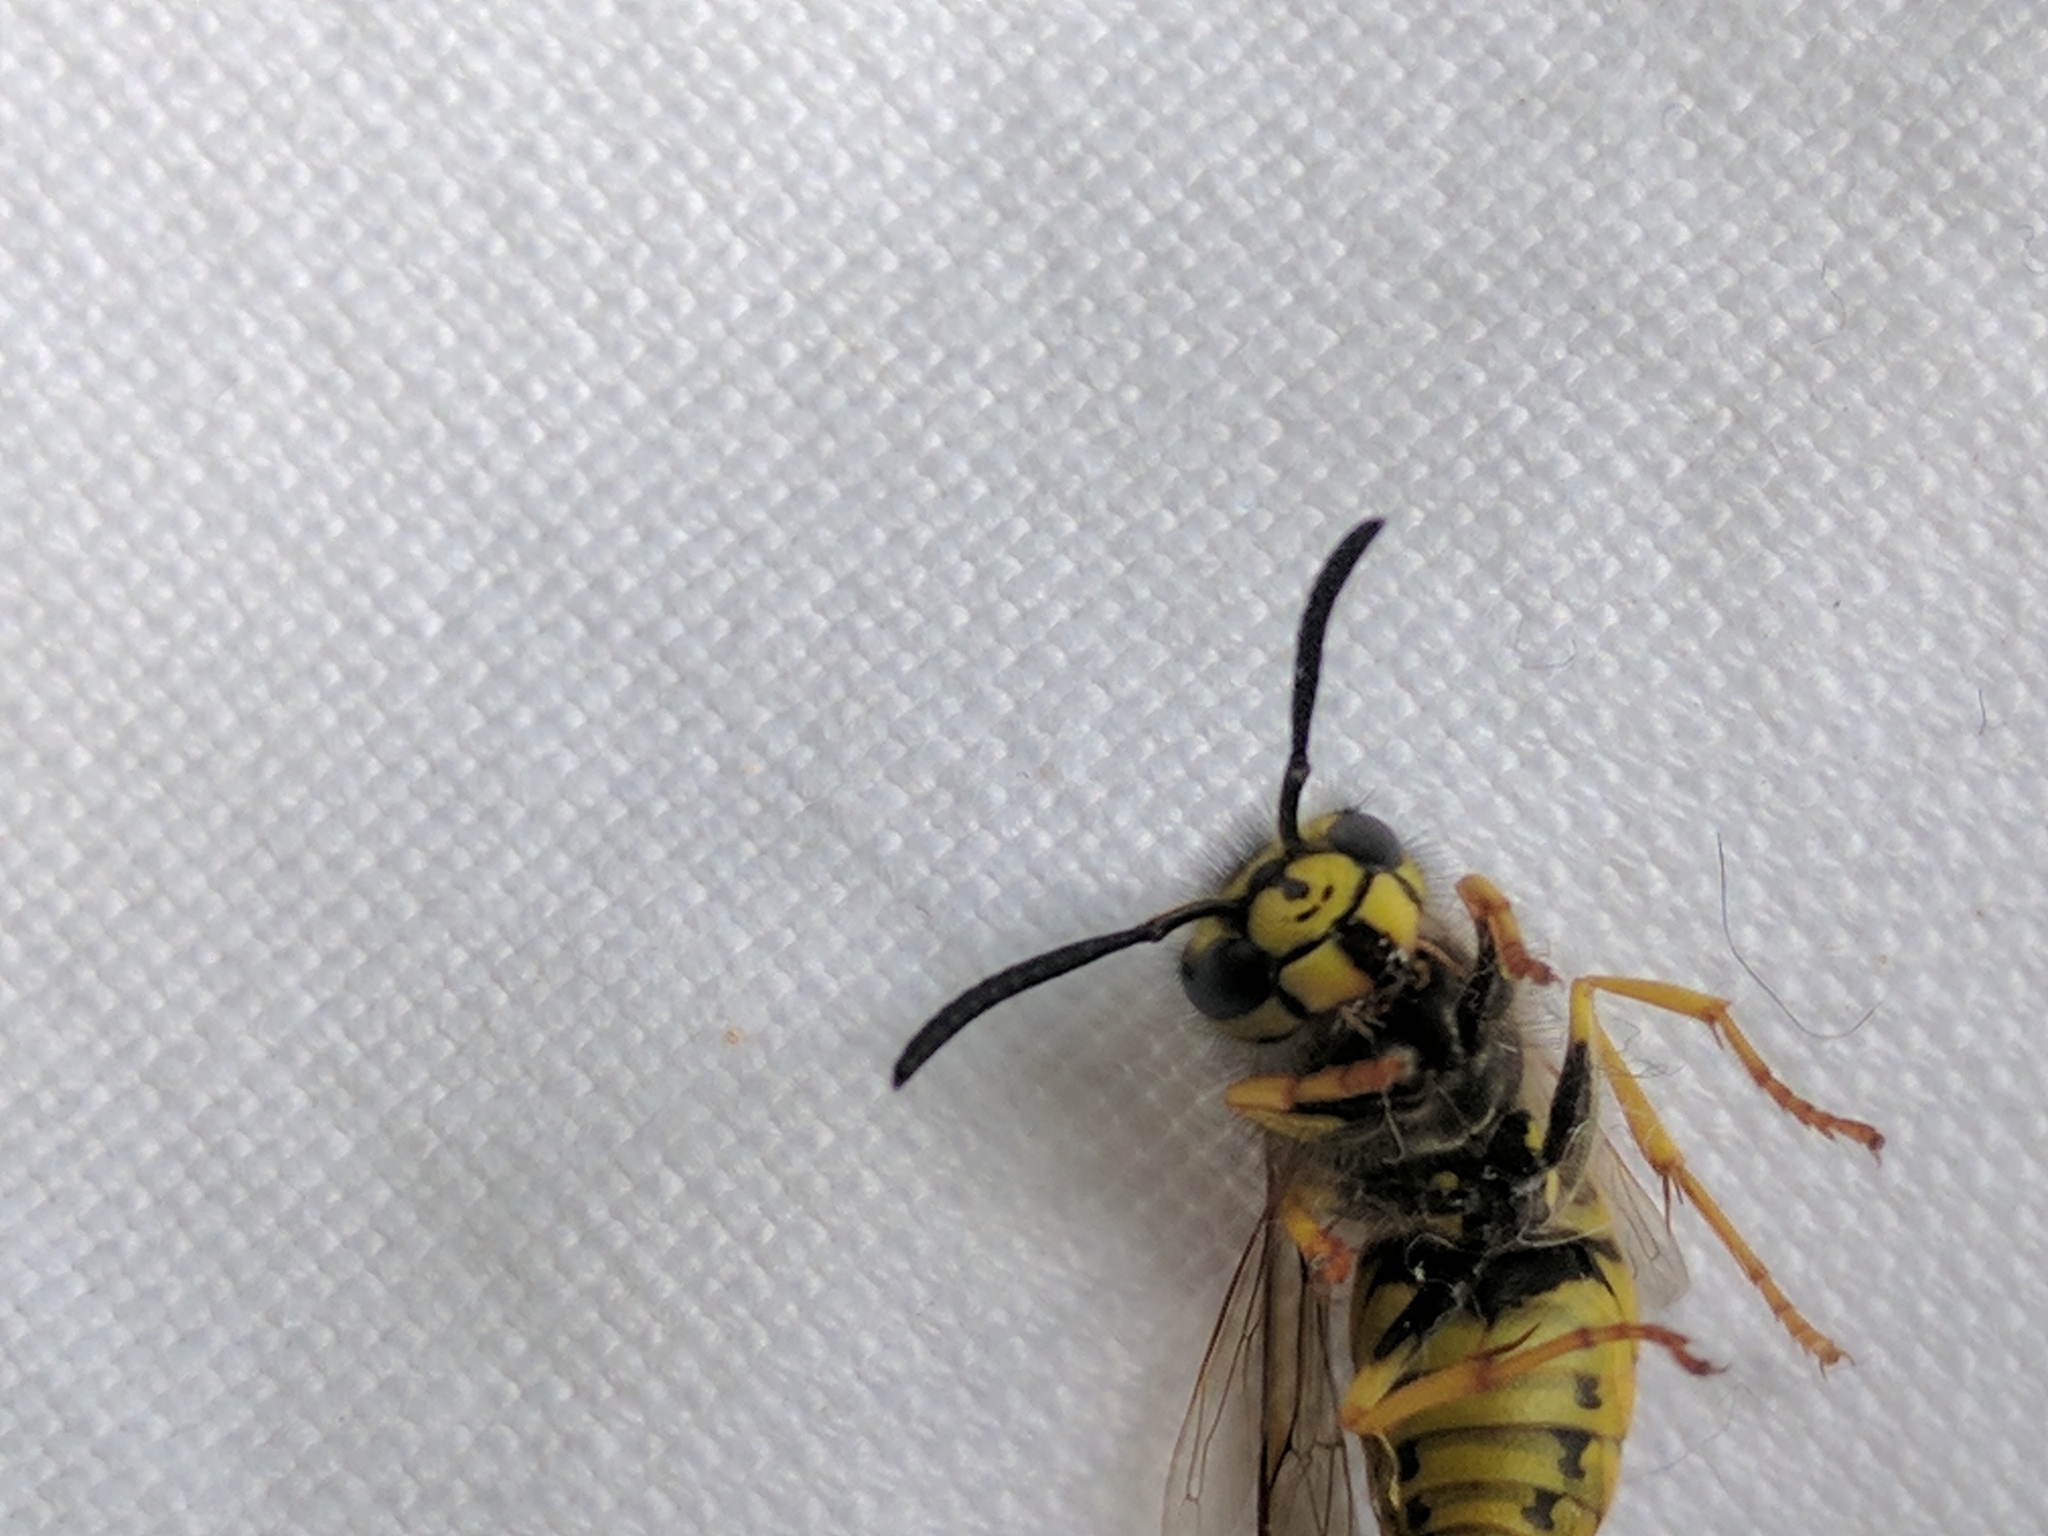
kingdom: Animalia
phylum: Arthropoda
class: Insecta
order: Hymenoptera
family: Vespidae
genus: Vespula
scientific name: Vespula germanica
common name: German wasp
